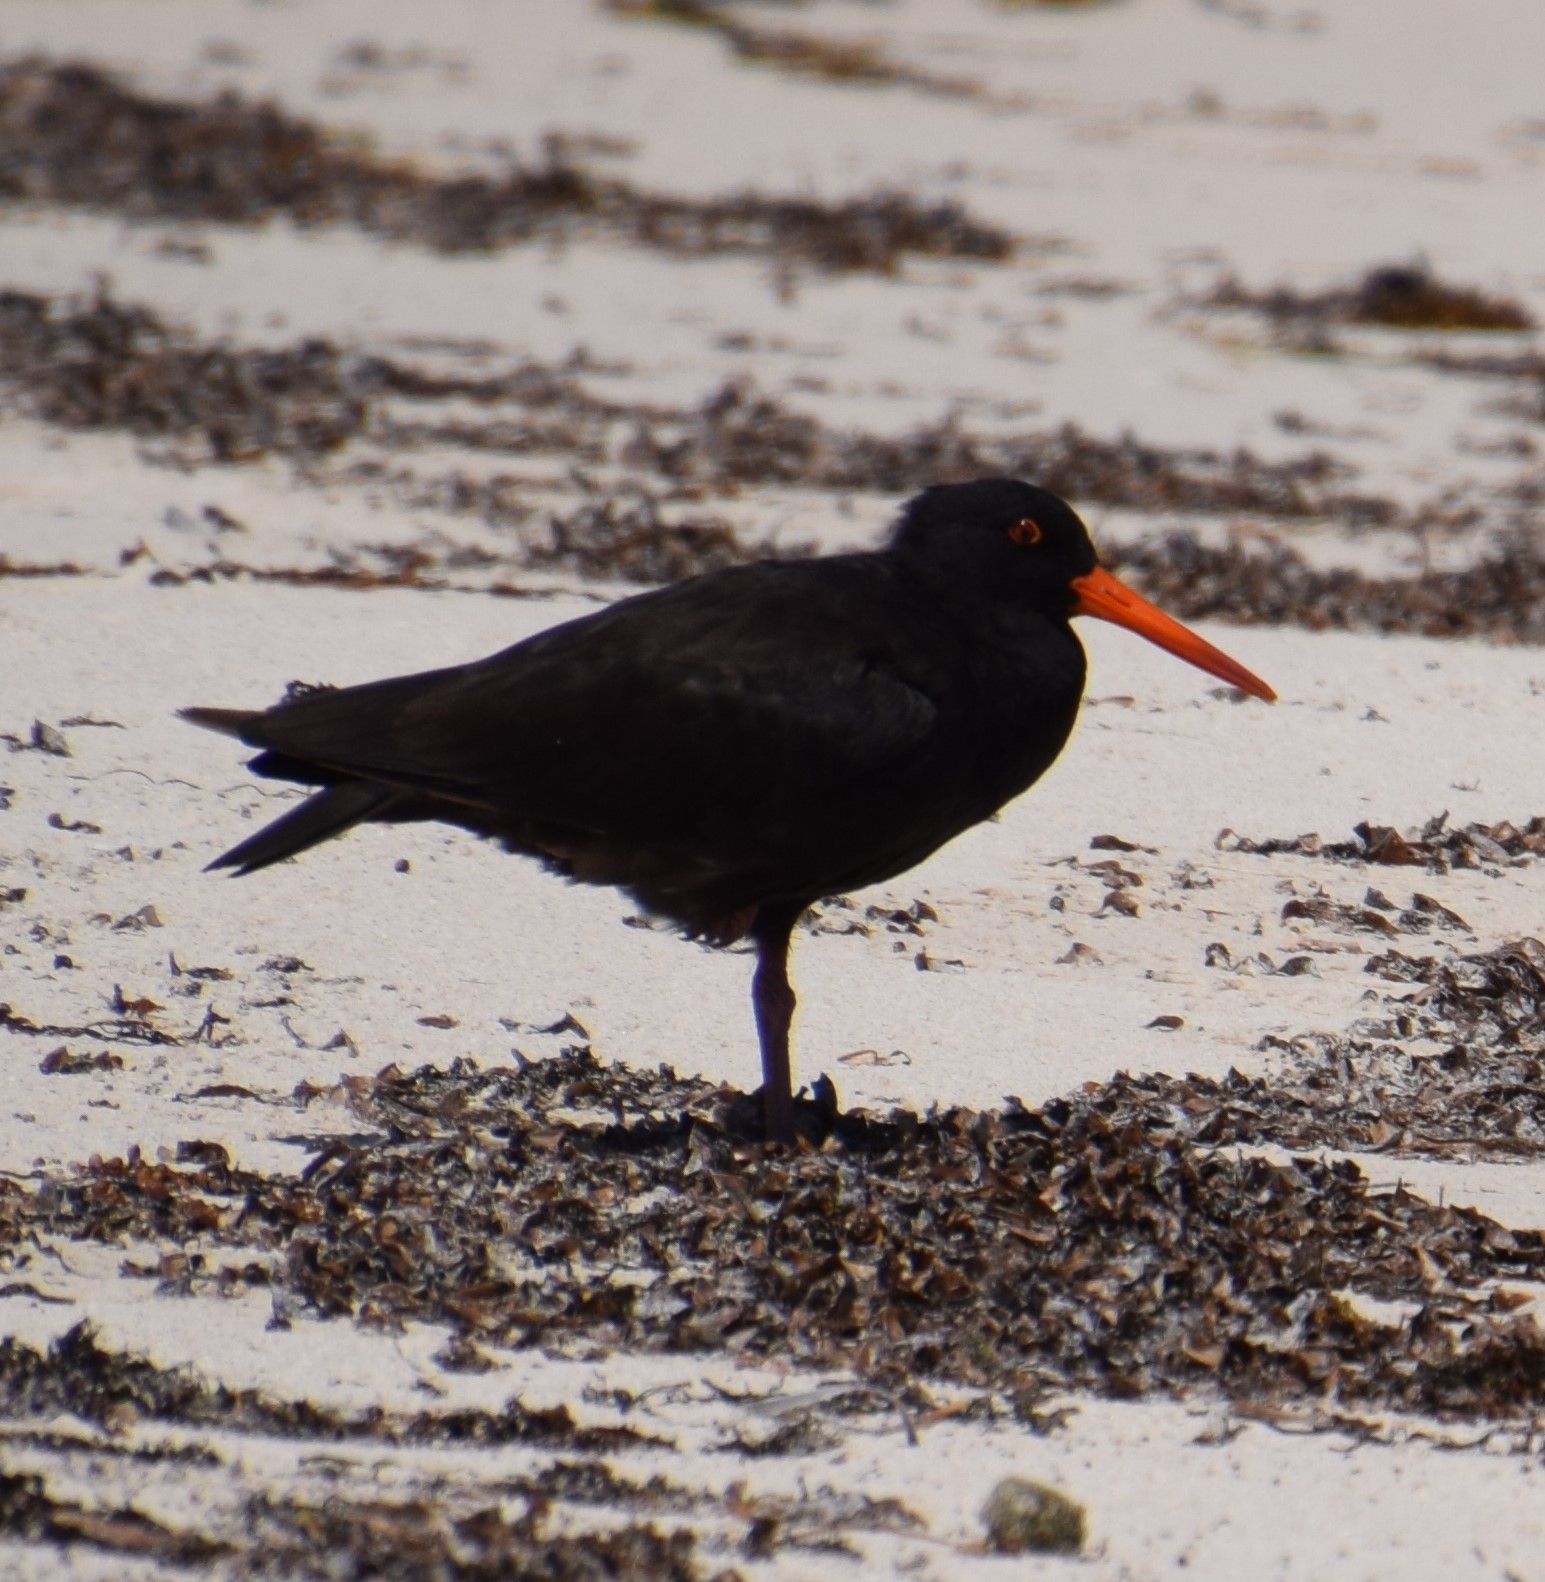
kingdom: Animalia
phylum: Chordata
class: Aves
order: Charadriiformes
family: Haematopodidae
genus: Haematopus
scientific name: Haematopus fuliginosus
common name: Sooty oystercatcher
